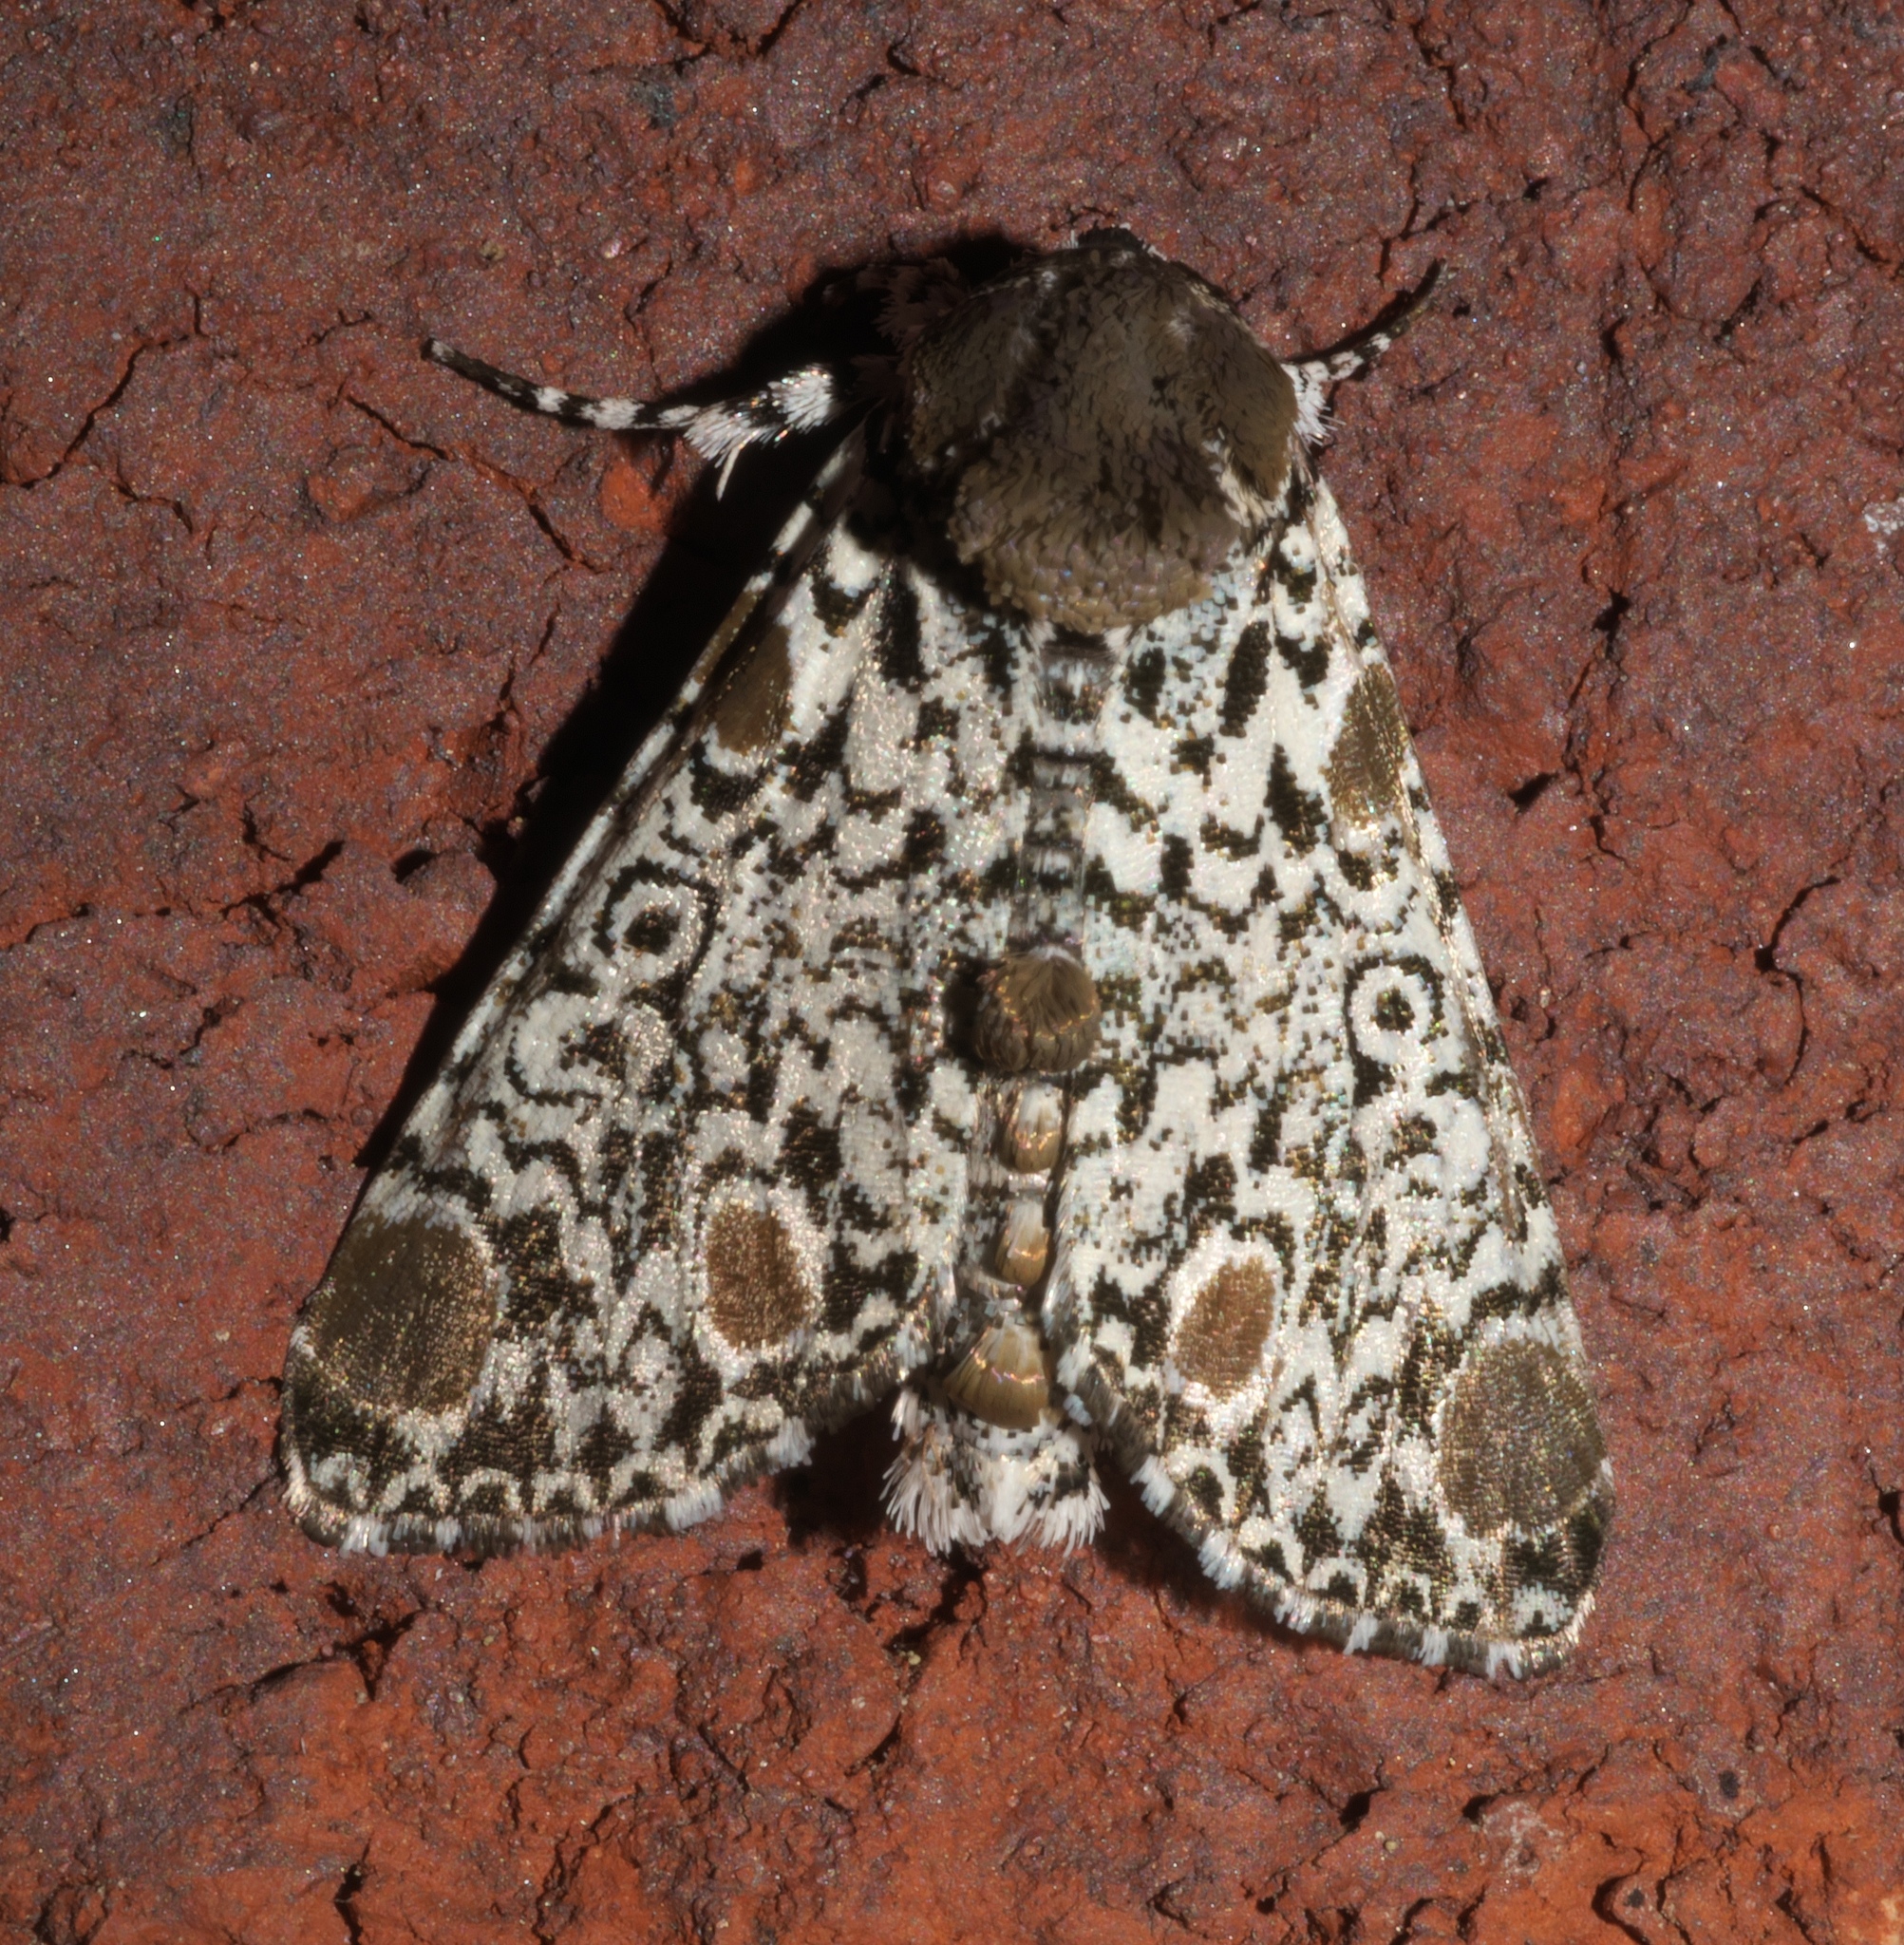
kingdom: Animalia
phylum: Arthropoda
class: Insecta
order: Lepidoptera
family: Noctuidae
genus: Harrisimemna
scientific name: Harrisimemna trisignata
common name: Harris threespot
